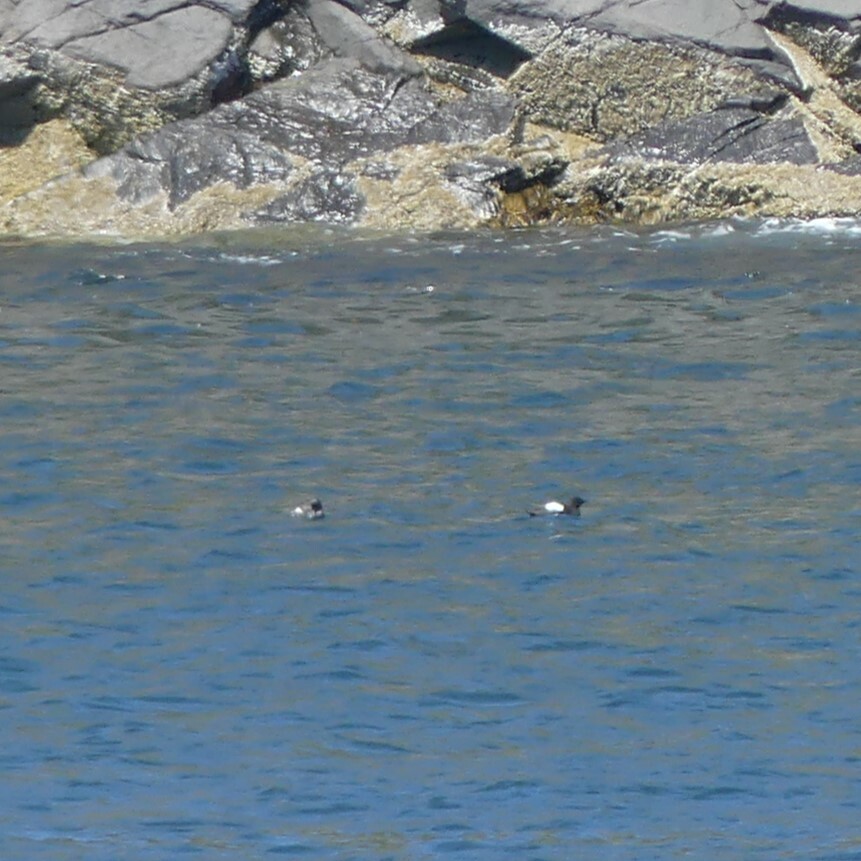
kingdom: Animalia
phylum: Chordata
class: Aves
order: Charadriiformes
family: Alcidae
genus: Cepphus
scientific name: Cepphus grylle
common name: Black guillemot
